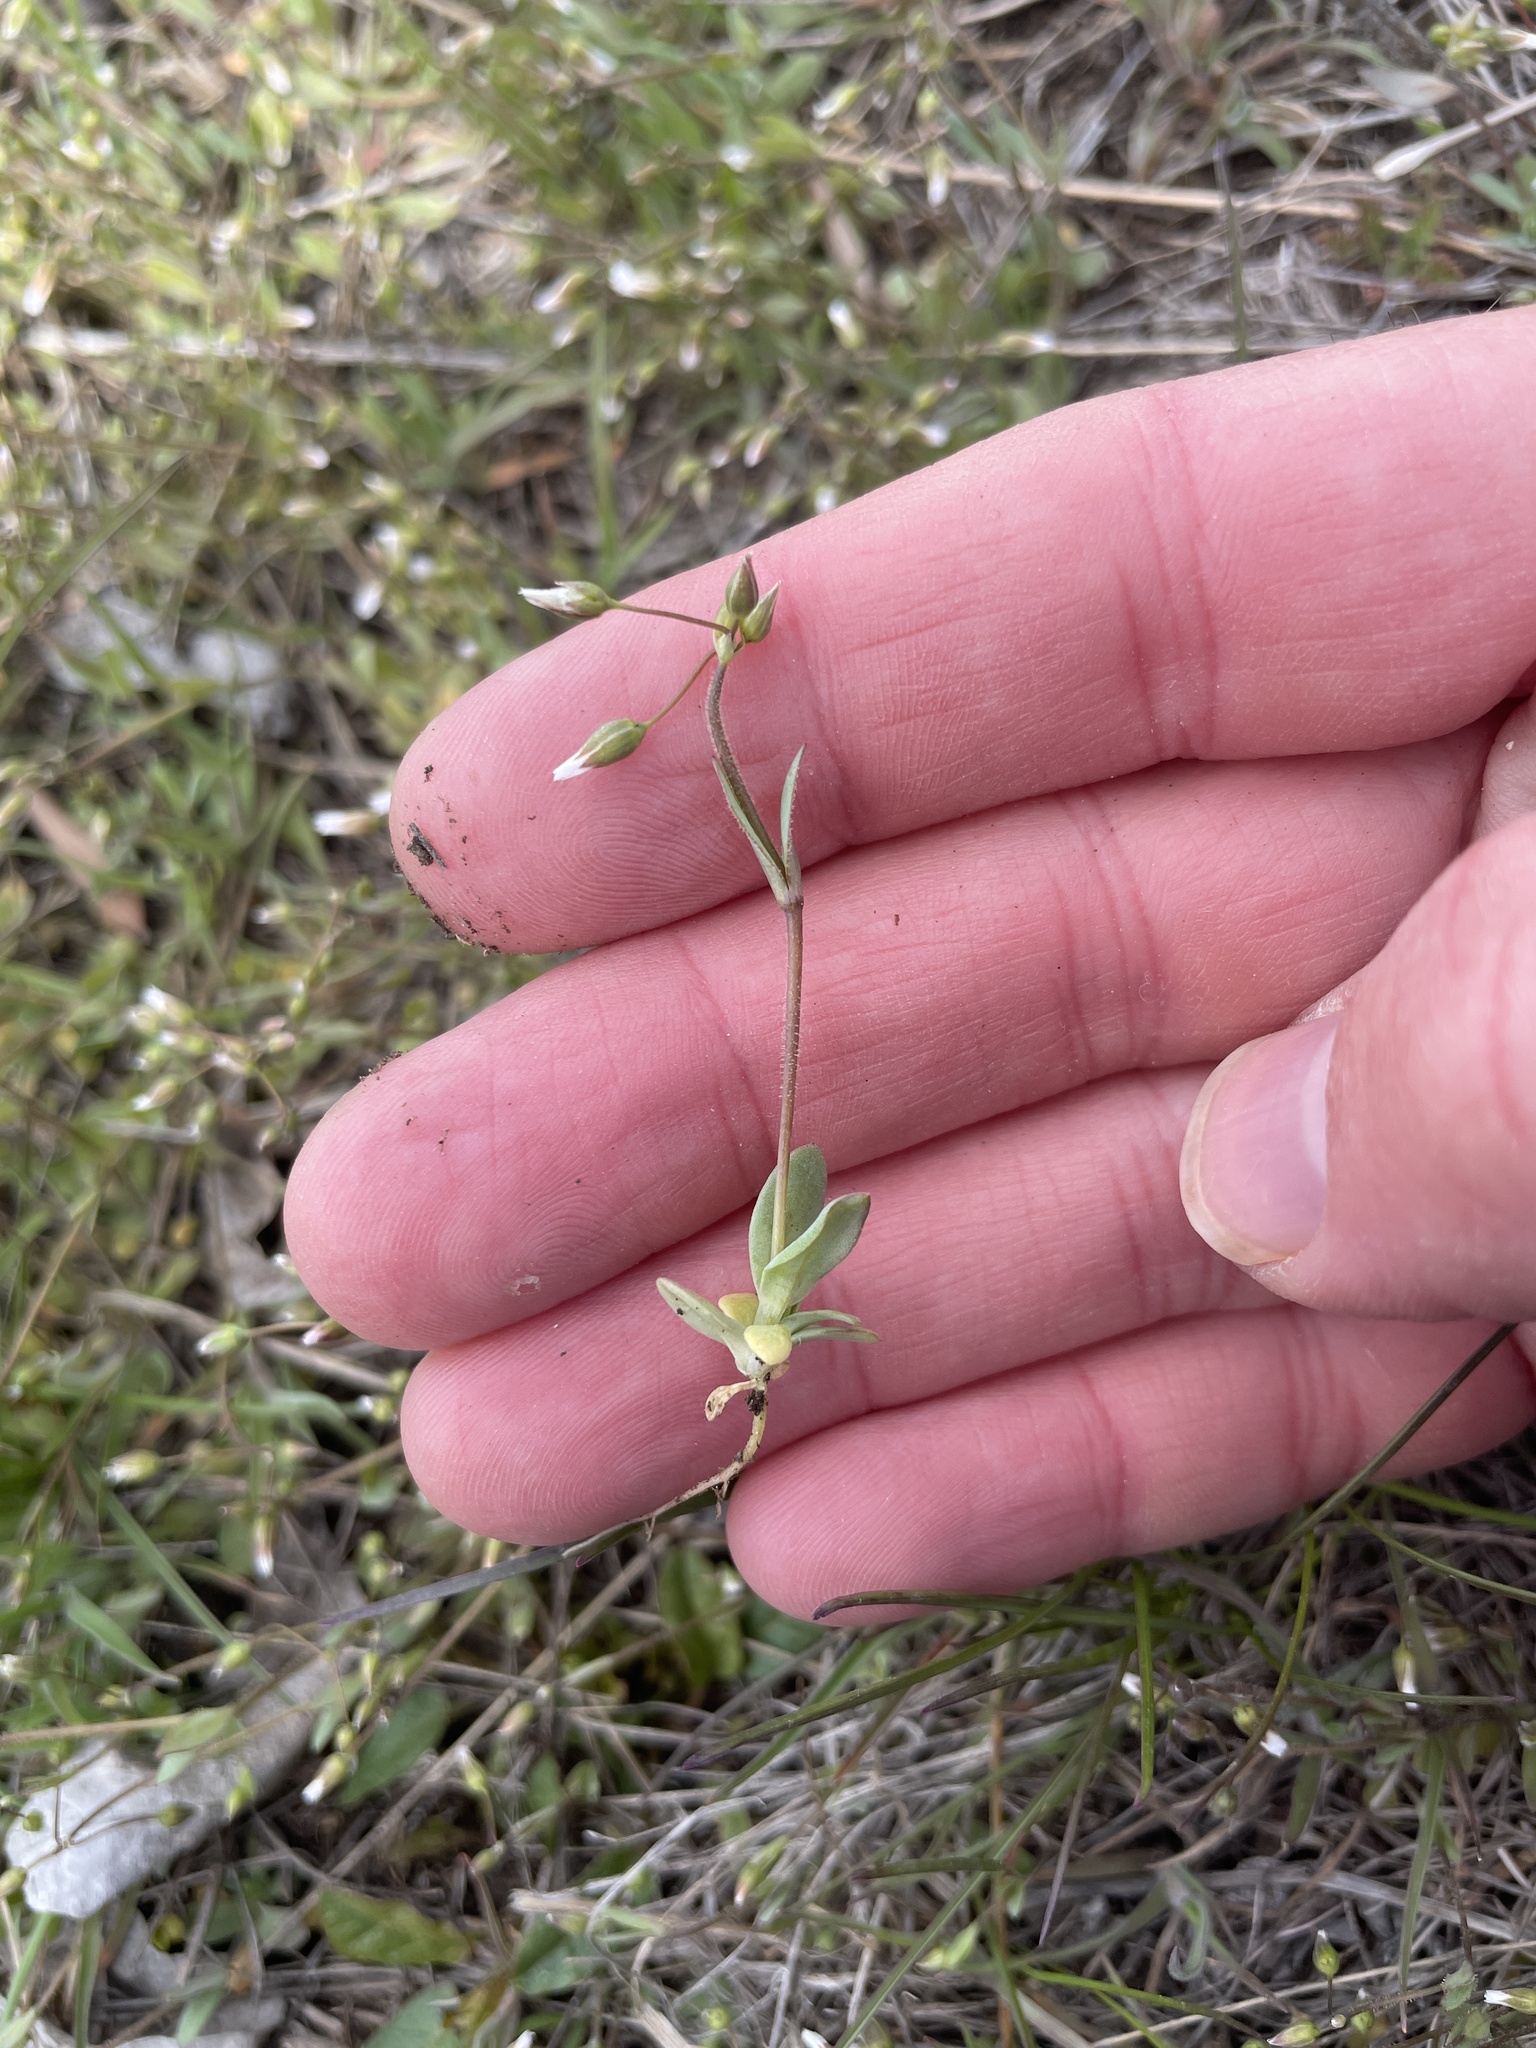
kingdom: Plantae
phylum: Tracheophyta
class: Magnoliopsida
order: Caryophyllales
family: Caryophyllaceae
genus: Holosteum
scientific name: Holosteum umbellatum
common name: Jagged chickweed
